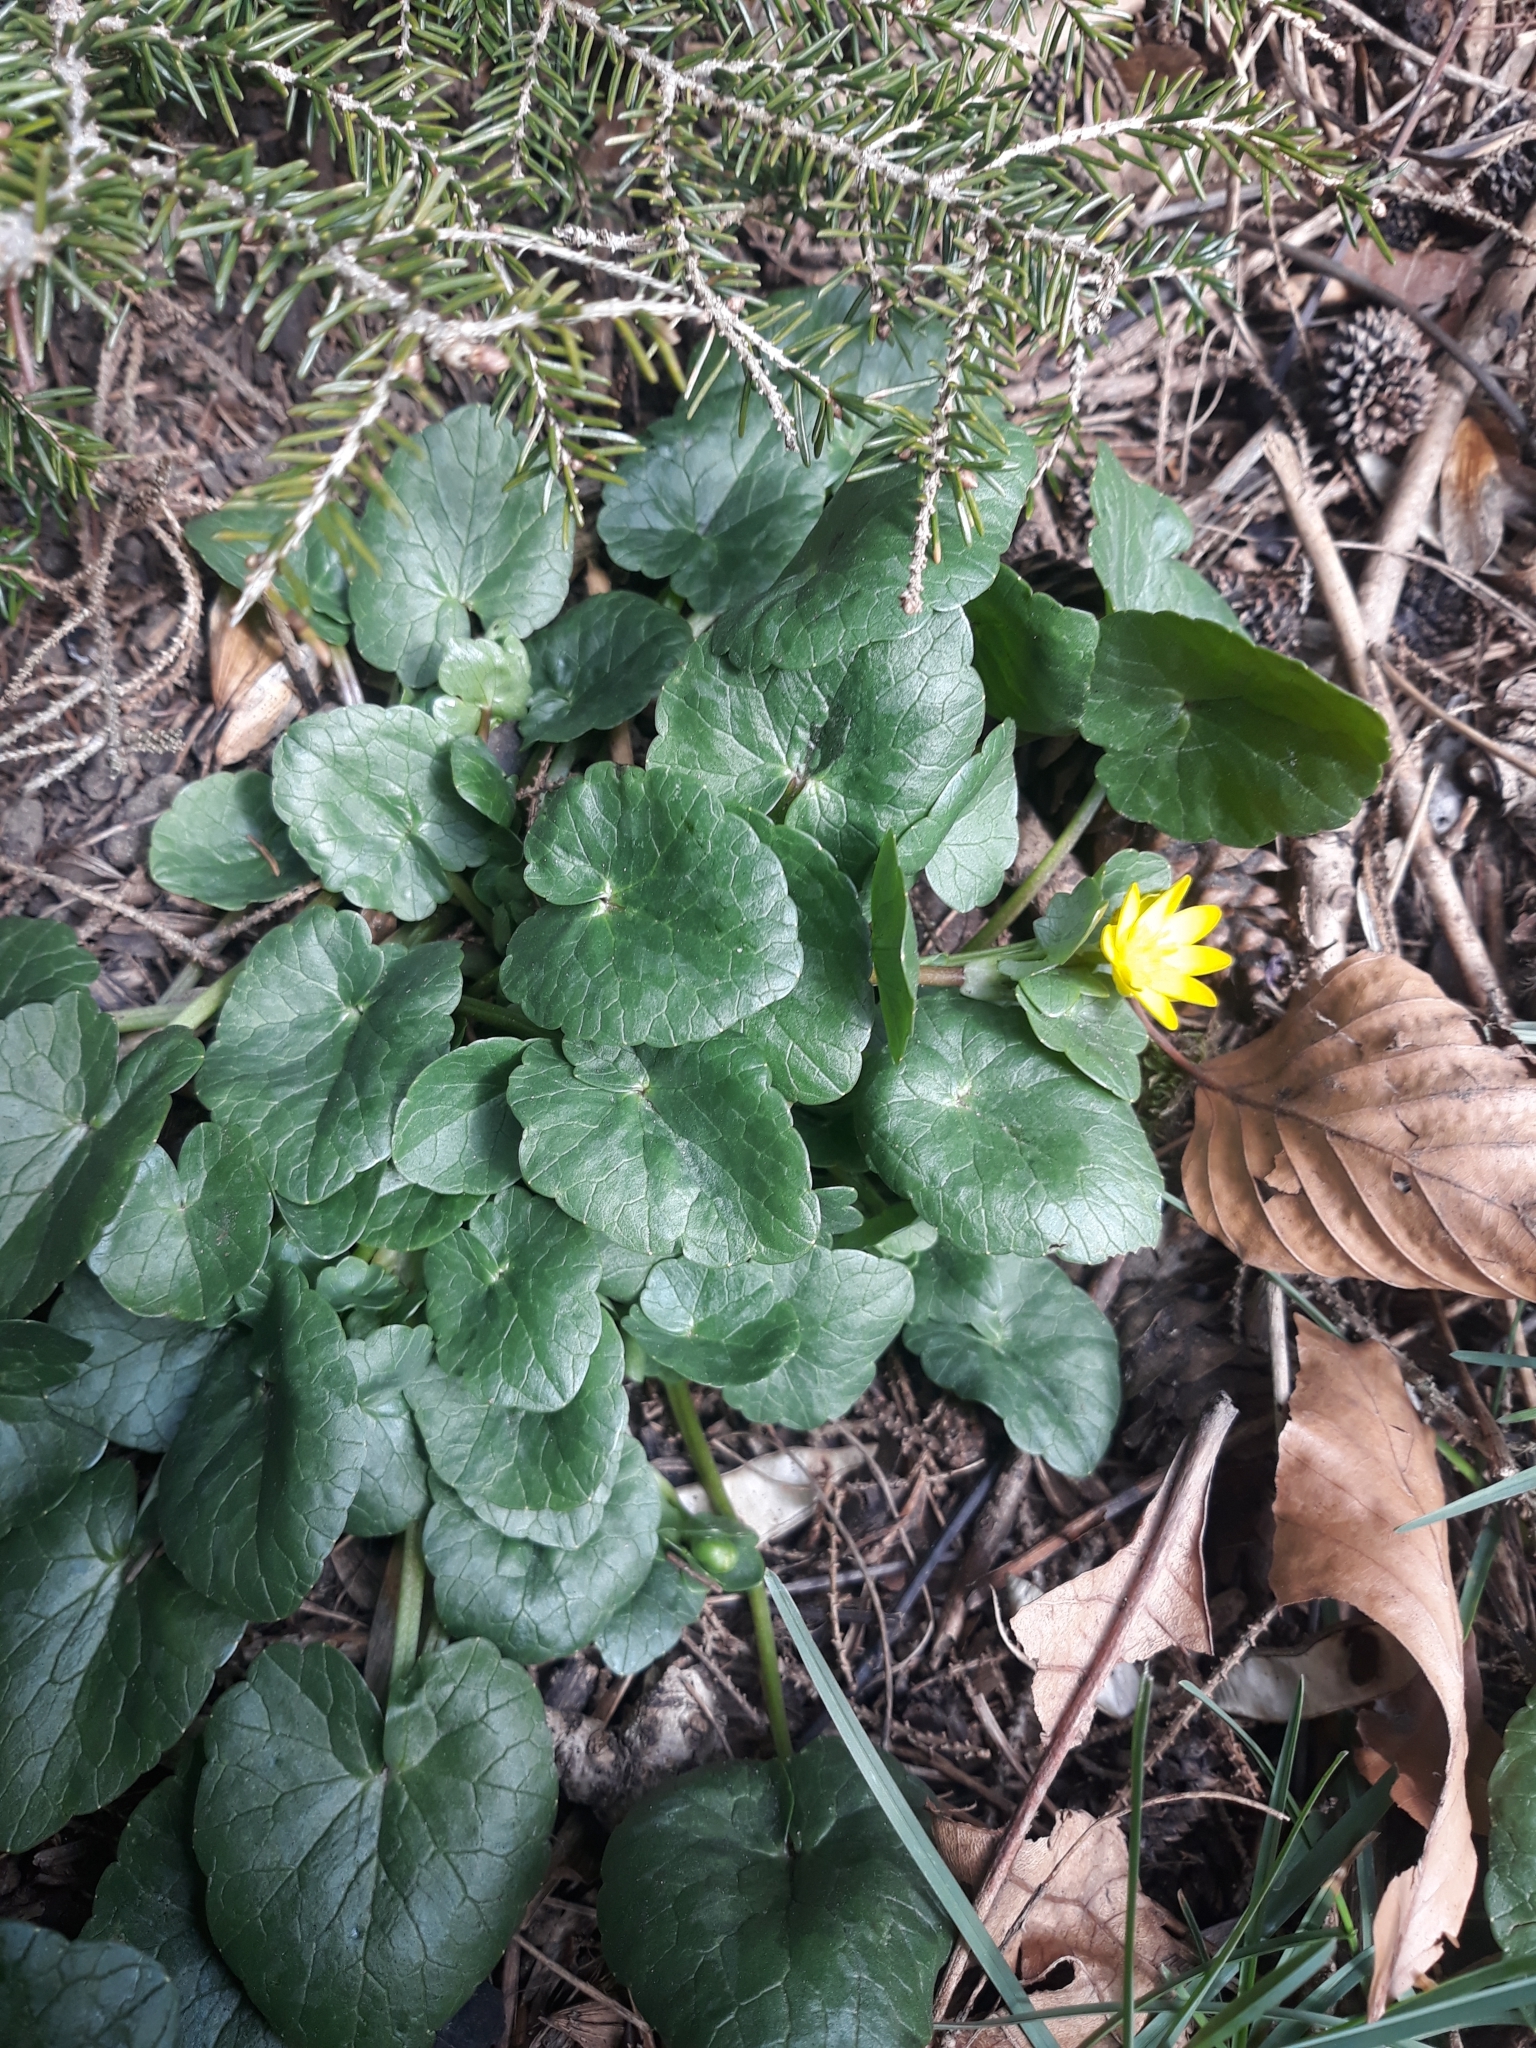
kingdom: Plantae
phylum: Tracheophyta
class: Magnoliopsida
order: Ranunculales
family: Ranunculaceae
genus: Ficaria
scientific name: Ficaria verna
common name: Lesser celandine
